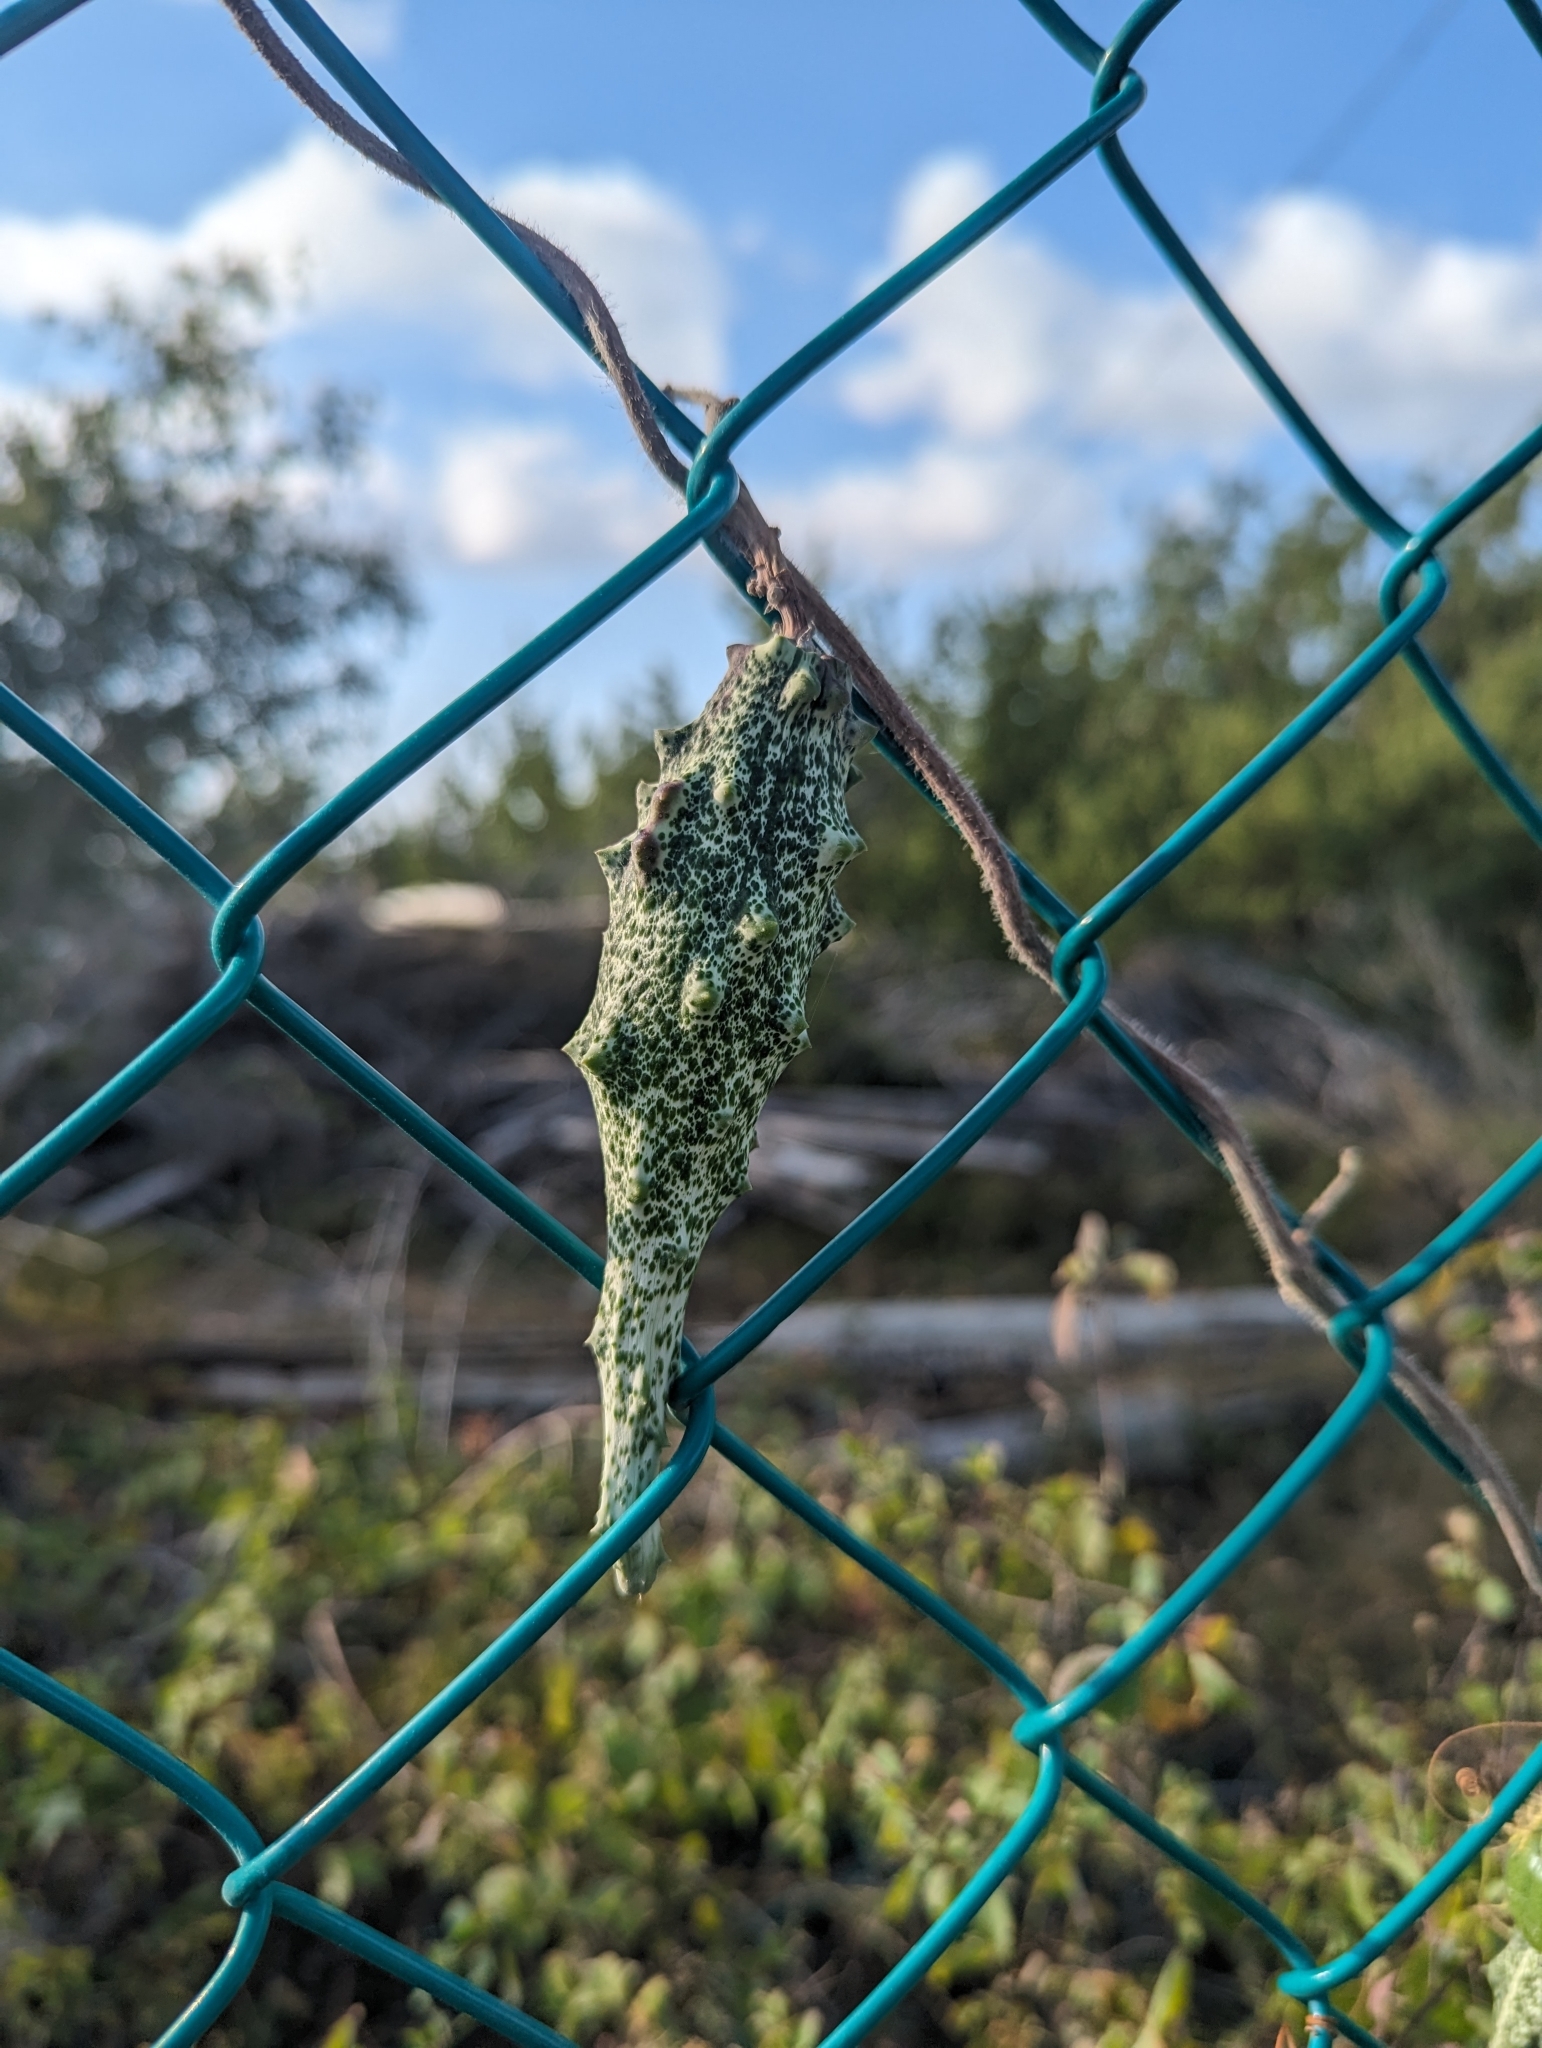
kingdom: Plantae
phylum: Tracheophyta
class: Magnoliopsida
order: Gentianales
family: Apocynaceae
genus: Dictyanthus
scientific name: Dictyanthus yucatanensis
